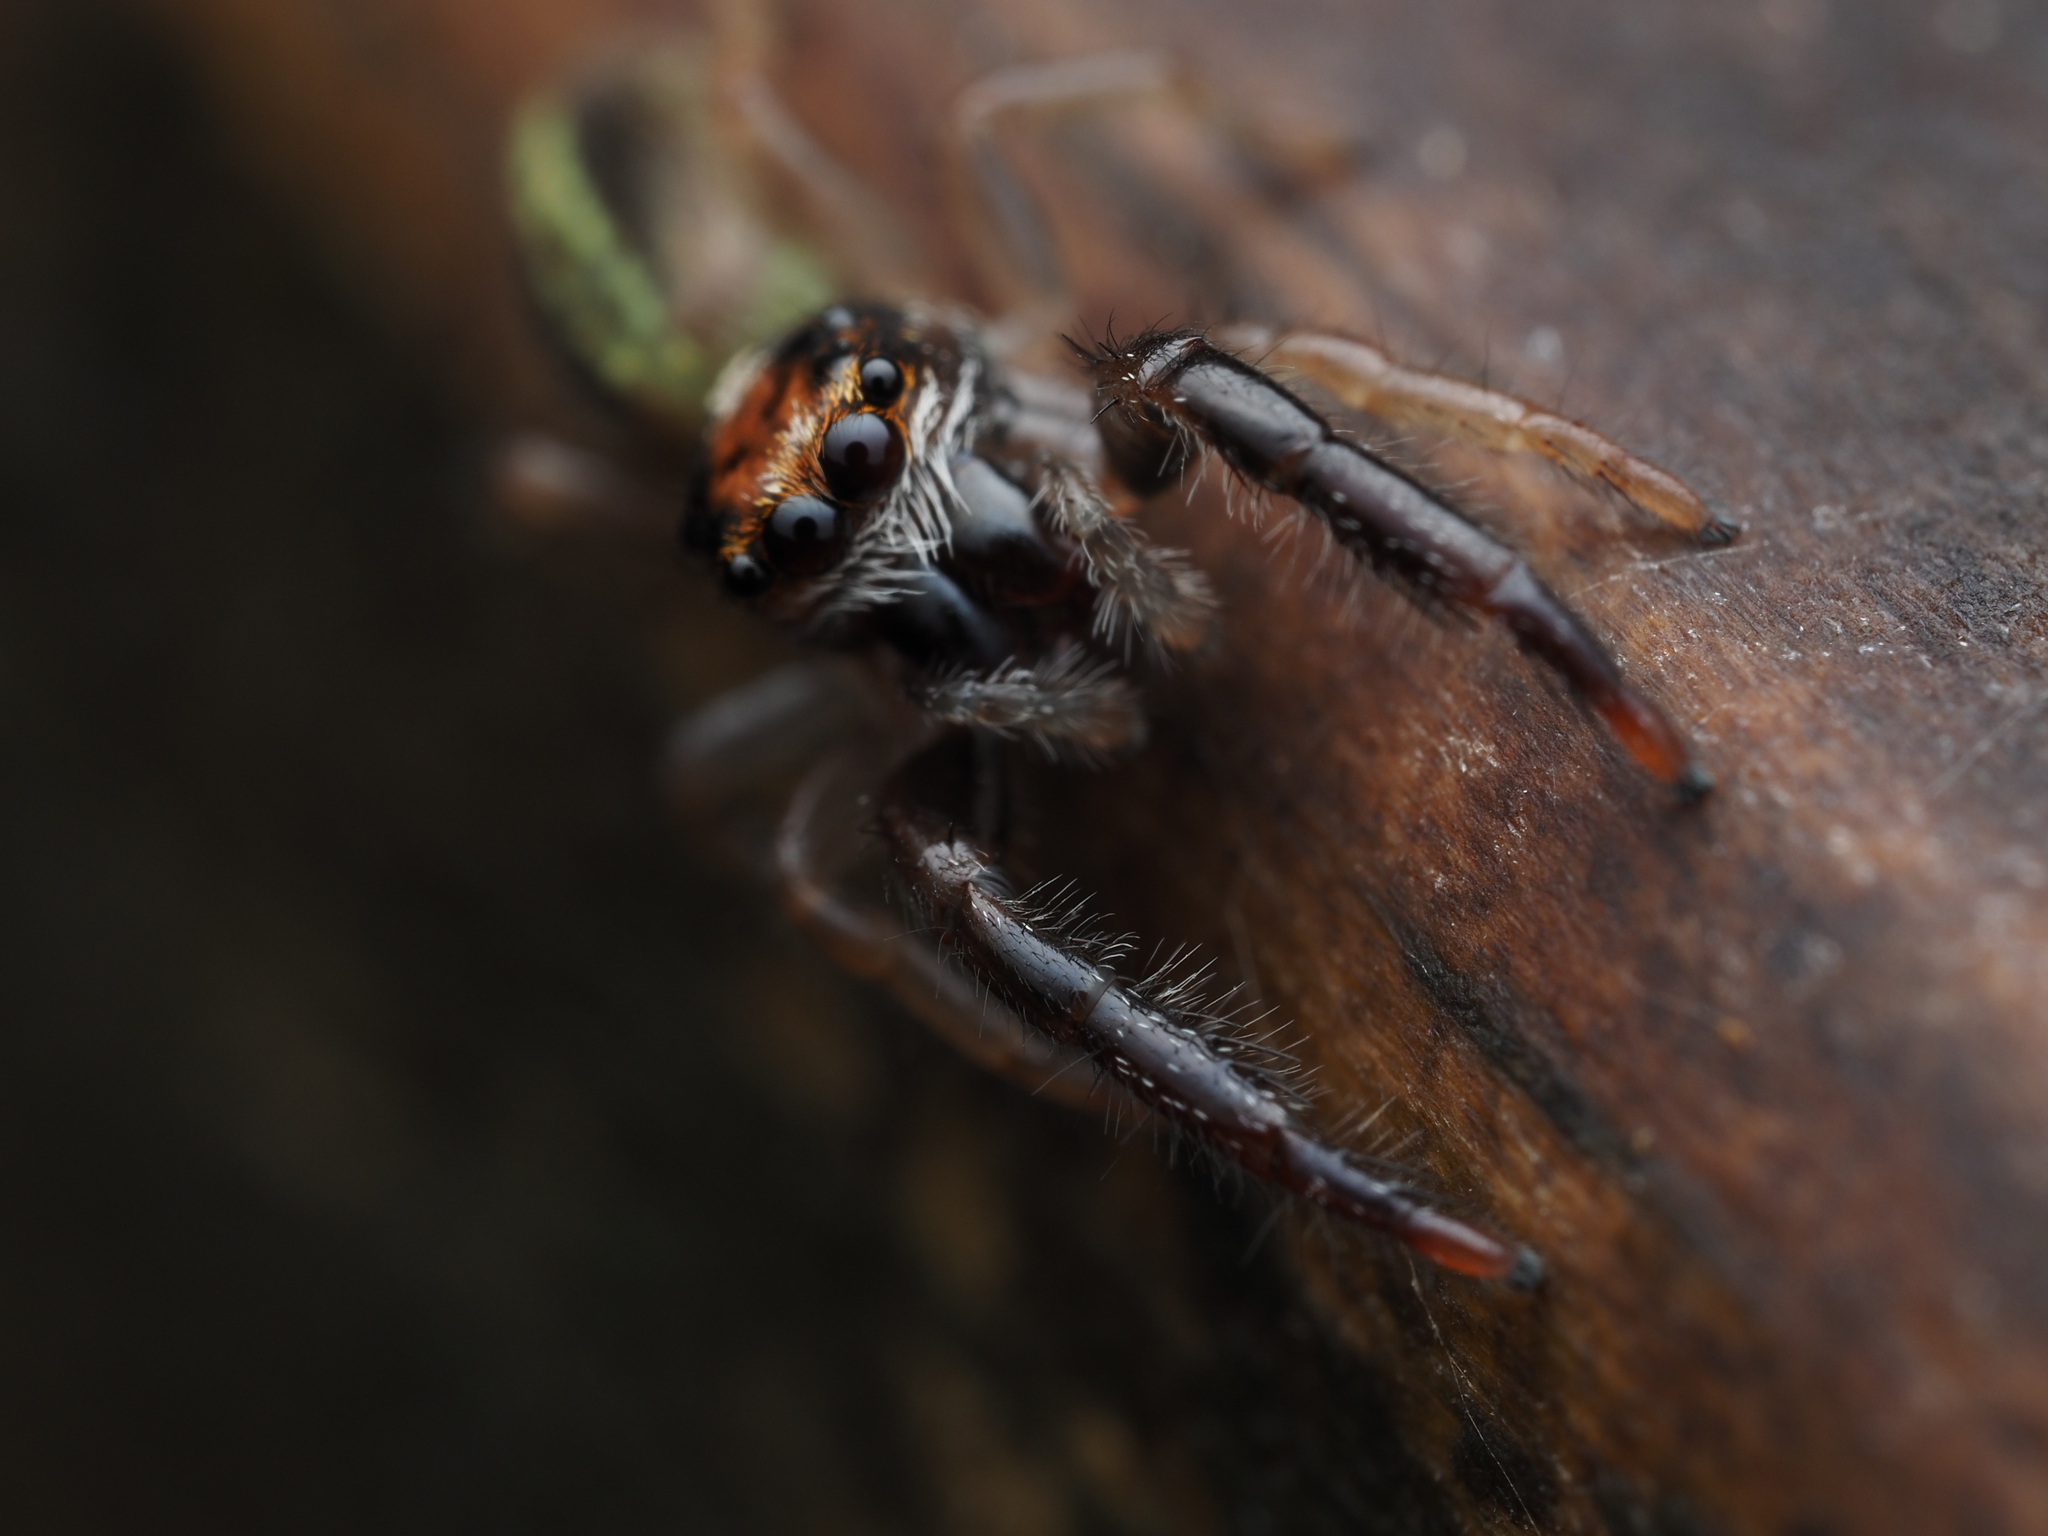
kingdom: Animalia
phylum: Arthropoda
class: Arachnida
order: Araneae
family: Salticidae
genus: Trite
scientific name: Trite planiceps
